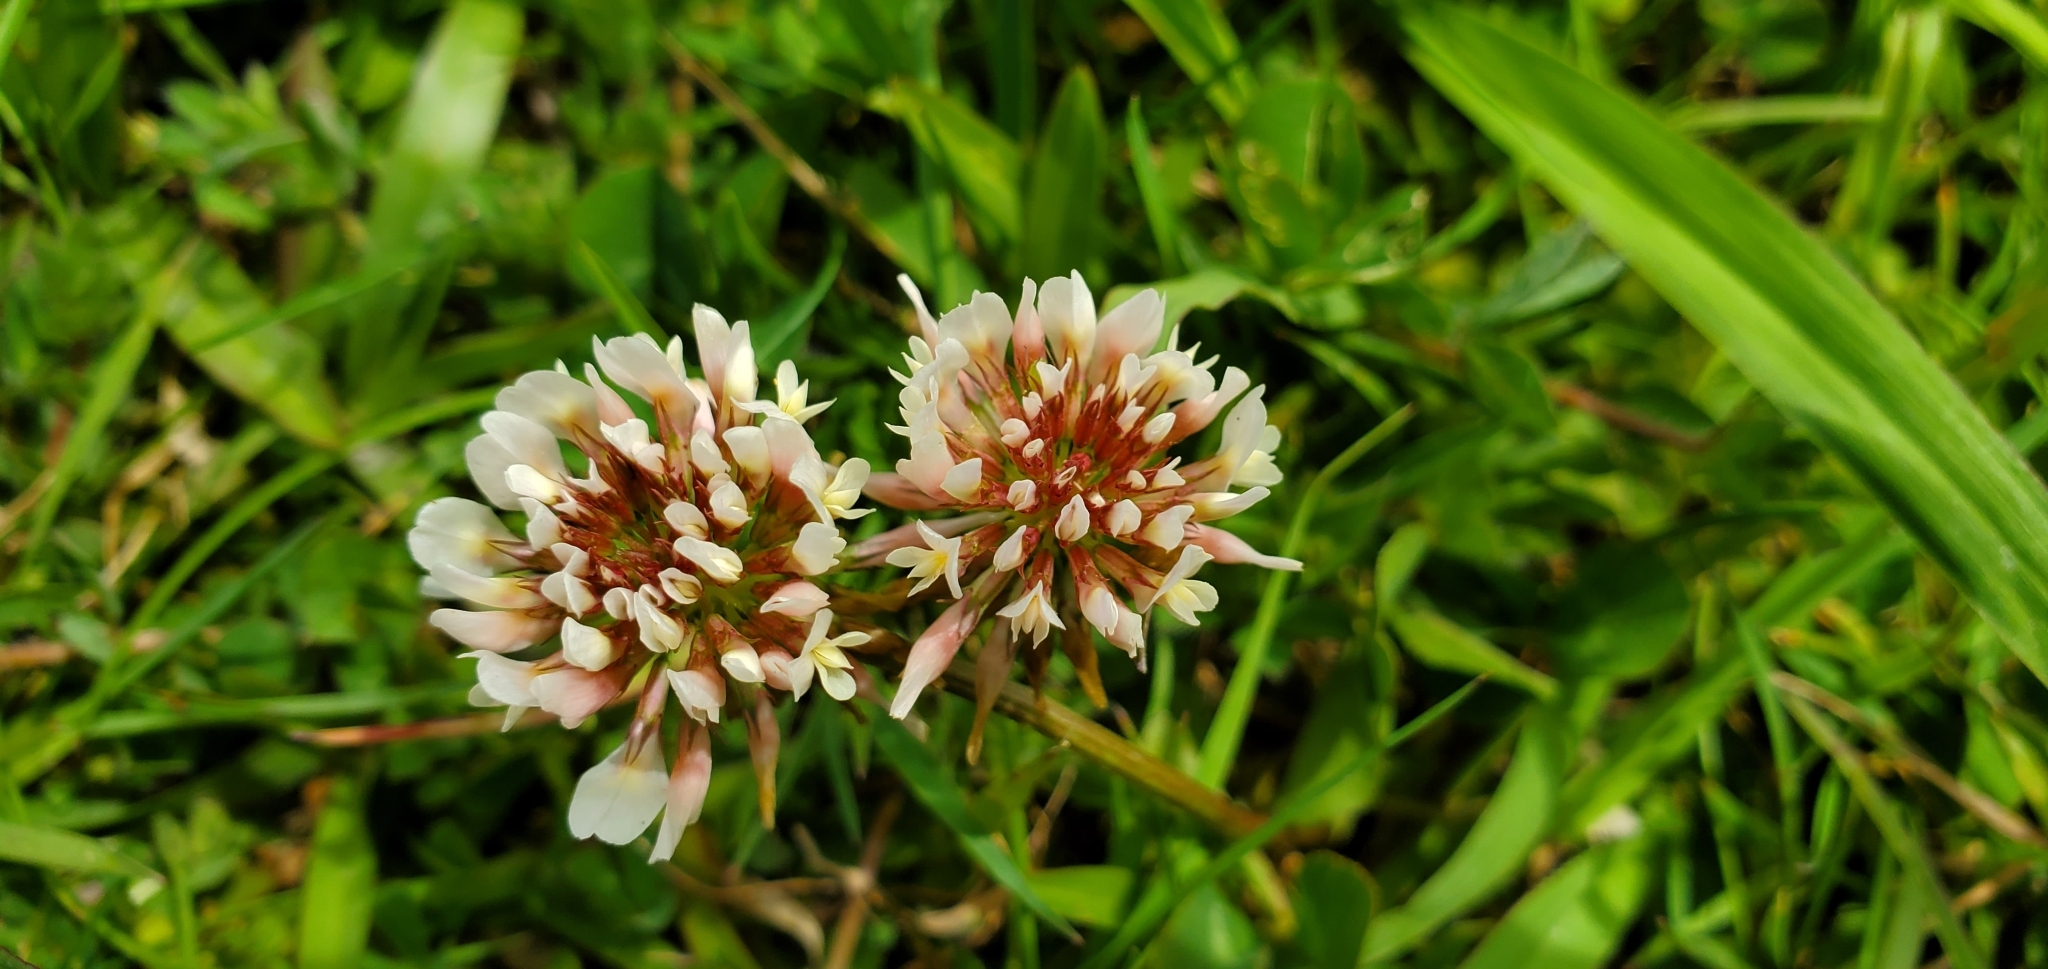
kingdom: Plantae
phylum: Tracheophyta
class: Magnoliopsida
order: Fabales
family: Fabaceae
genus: Trifolium
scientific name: Trifolium repens
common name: White clover
